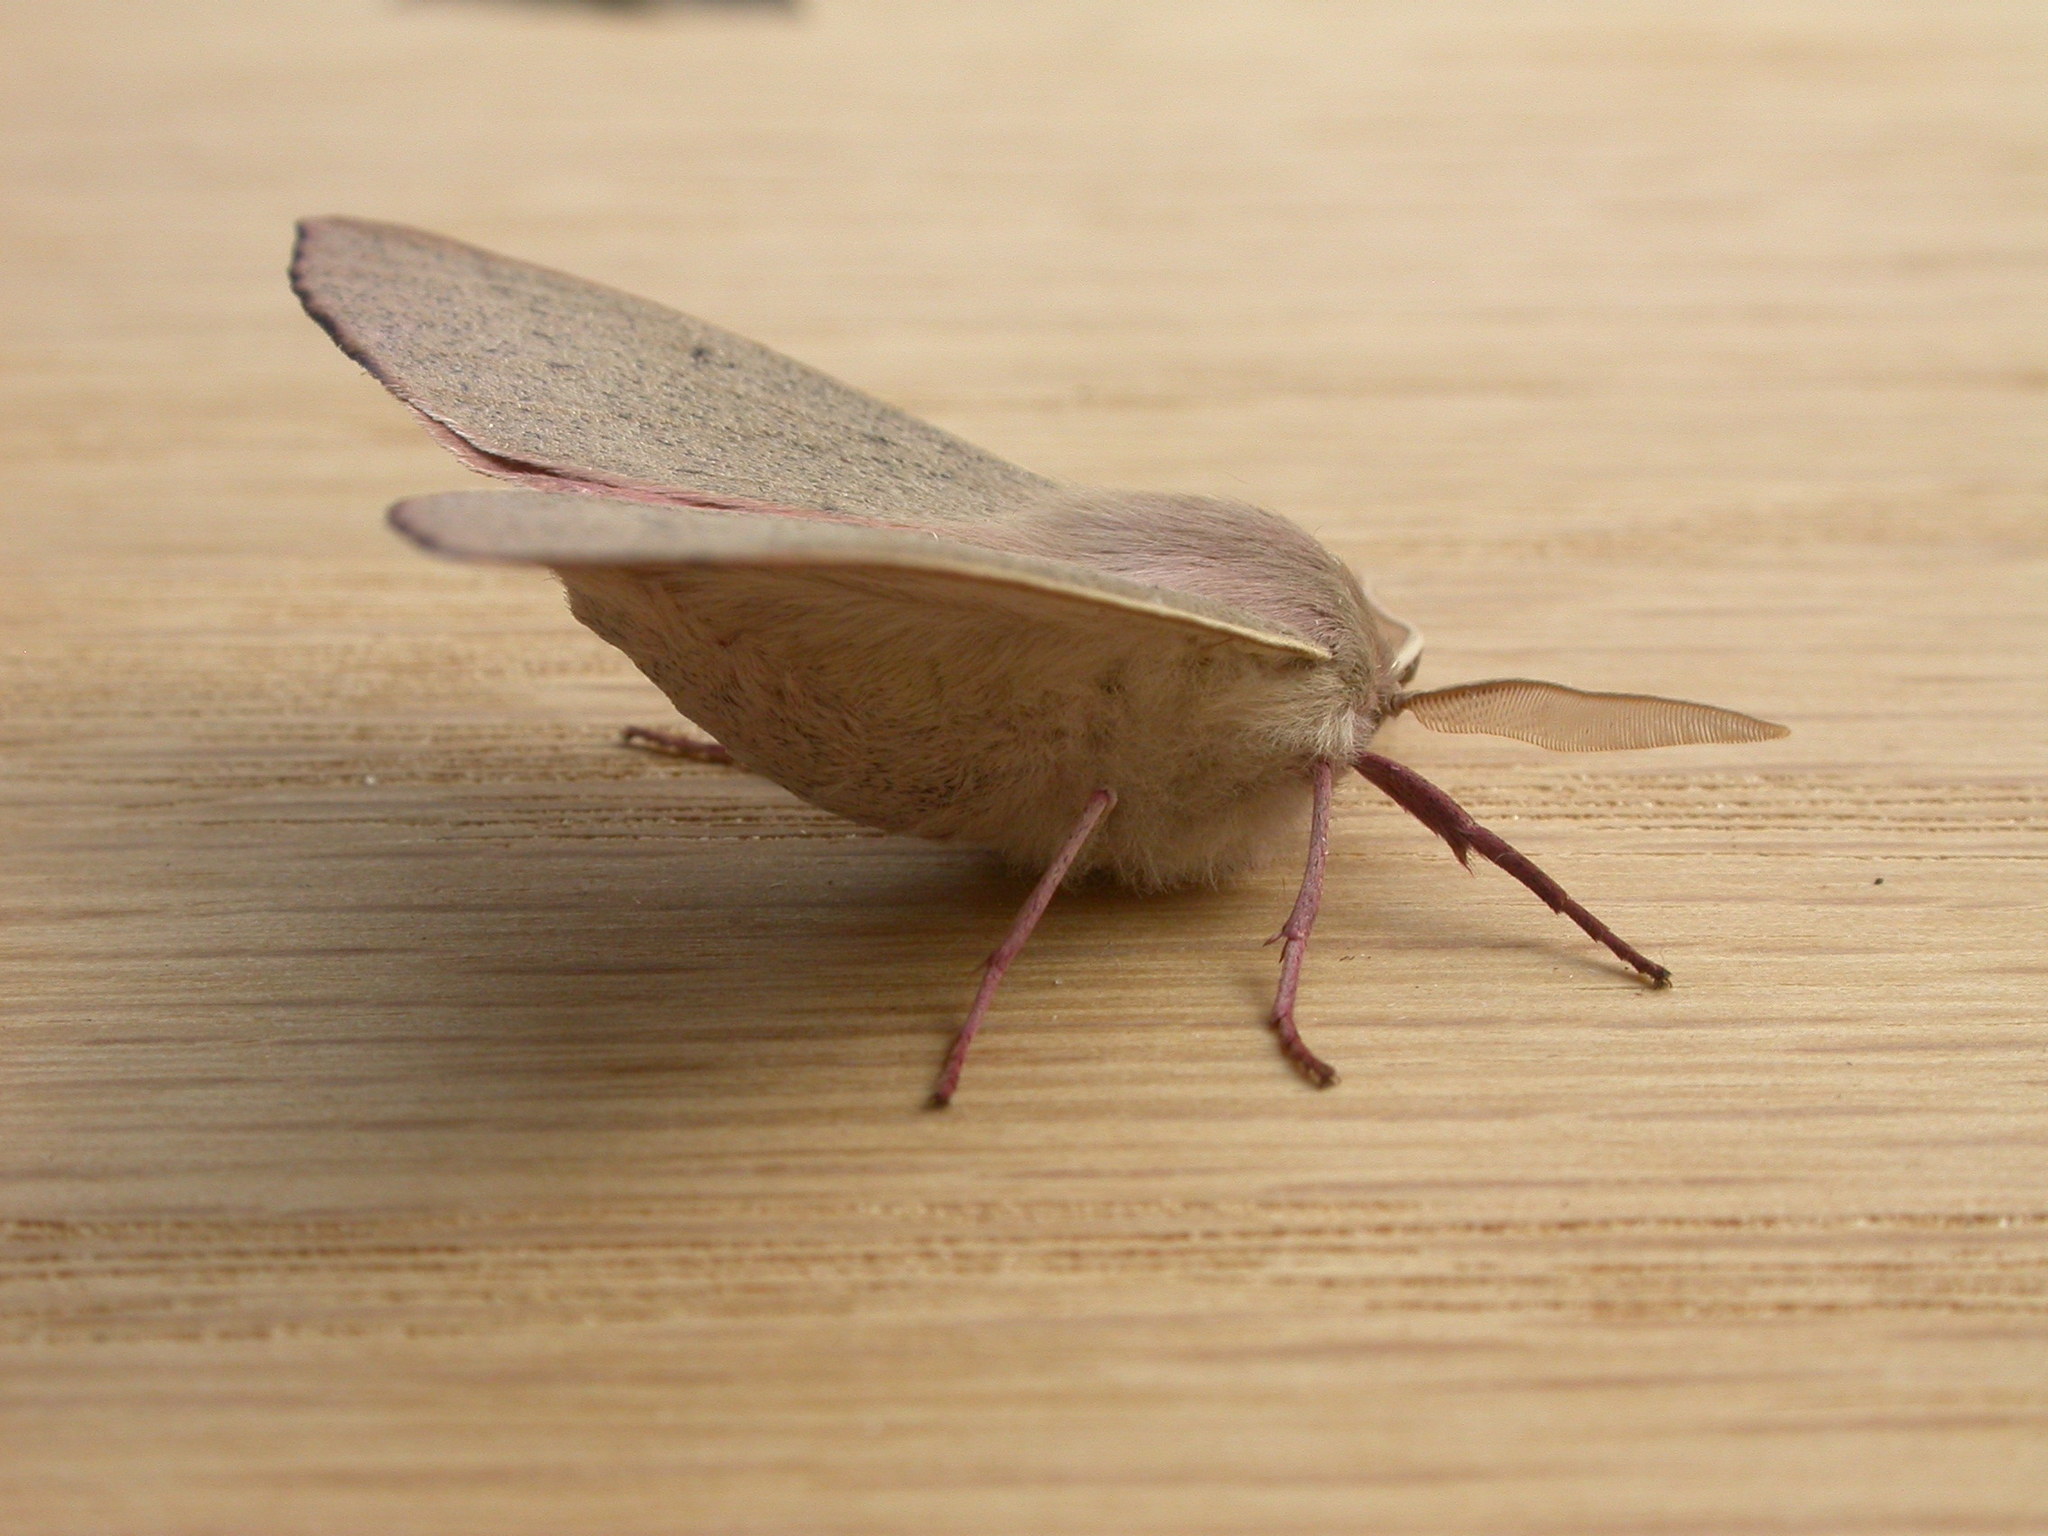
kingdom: Animalia
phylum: Arthropoda
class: Insecta
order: Lepidoptera
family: Geometridae
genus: Arhodia
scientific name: Arhodia lasiocamparia
